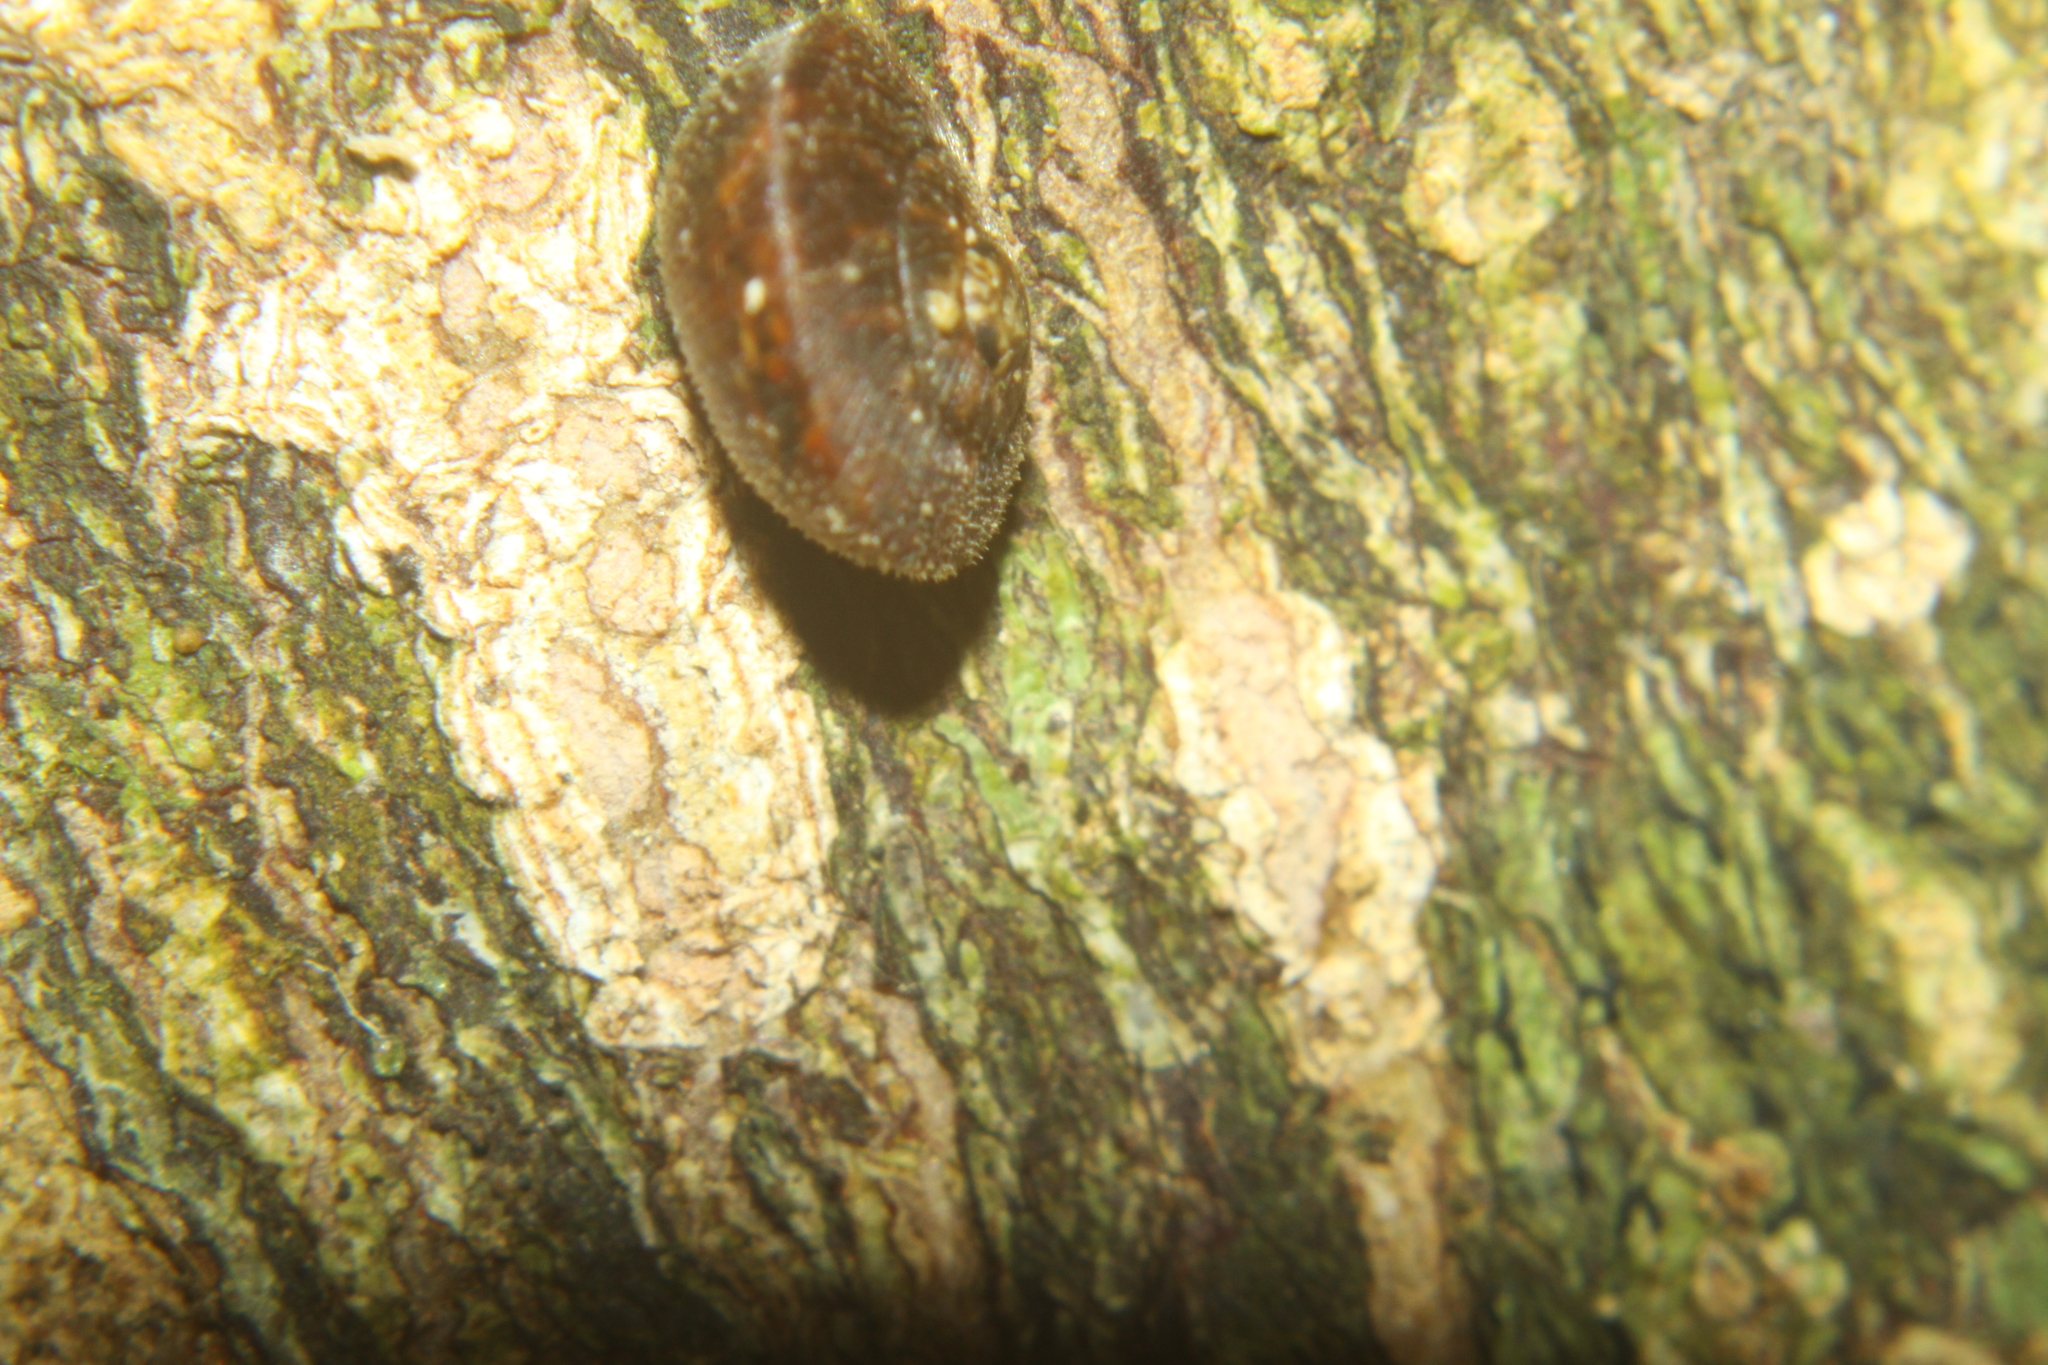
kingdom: Animalia
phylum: Mollusca
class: Gastropoda
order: Stylommatophora
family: Charopidae
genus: Thalassohelix
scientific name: Thalassohelix zelandiae
